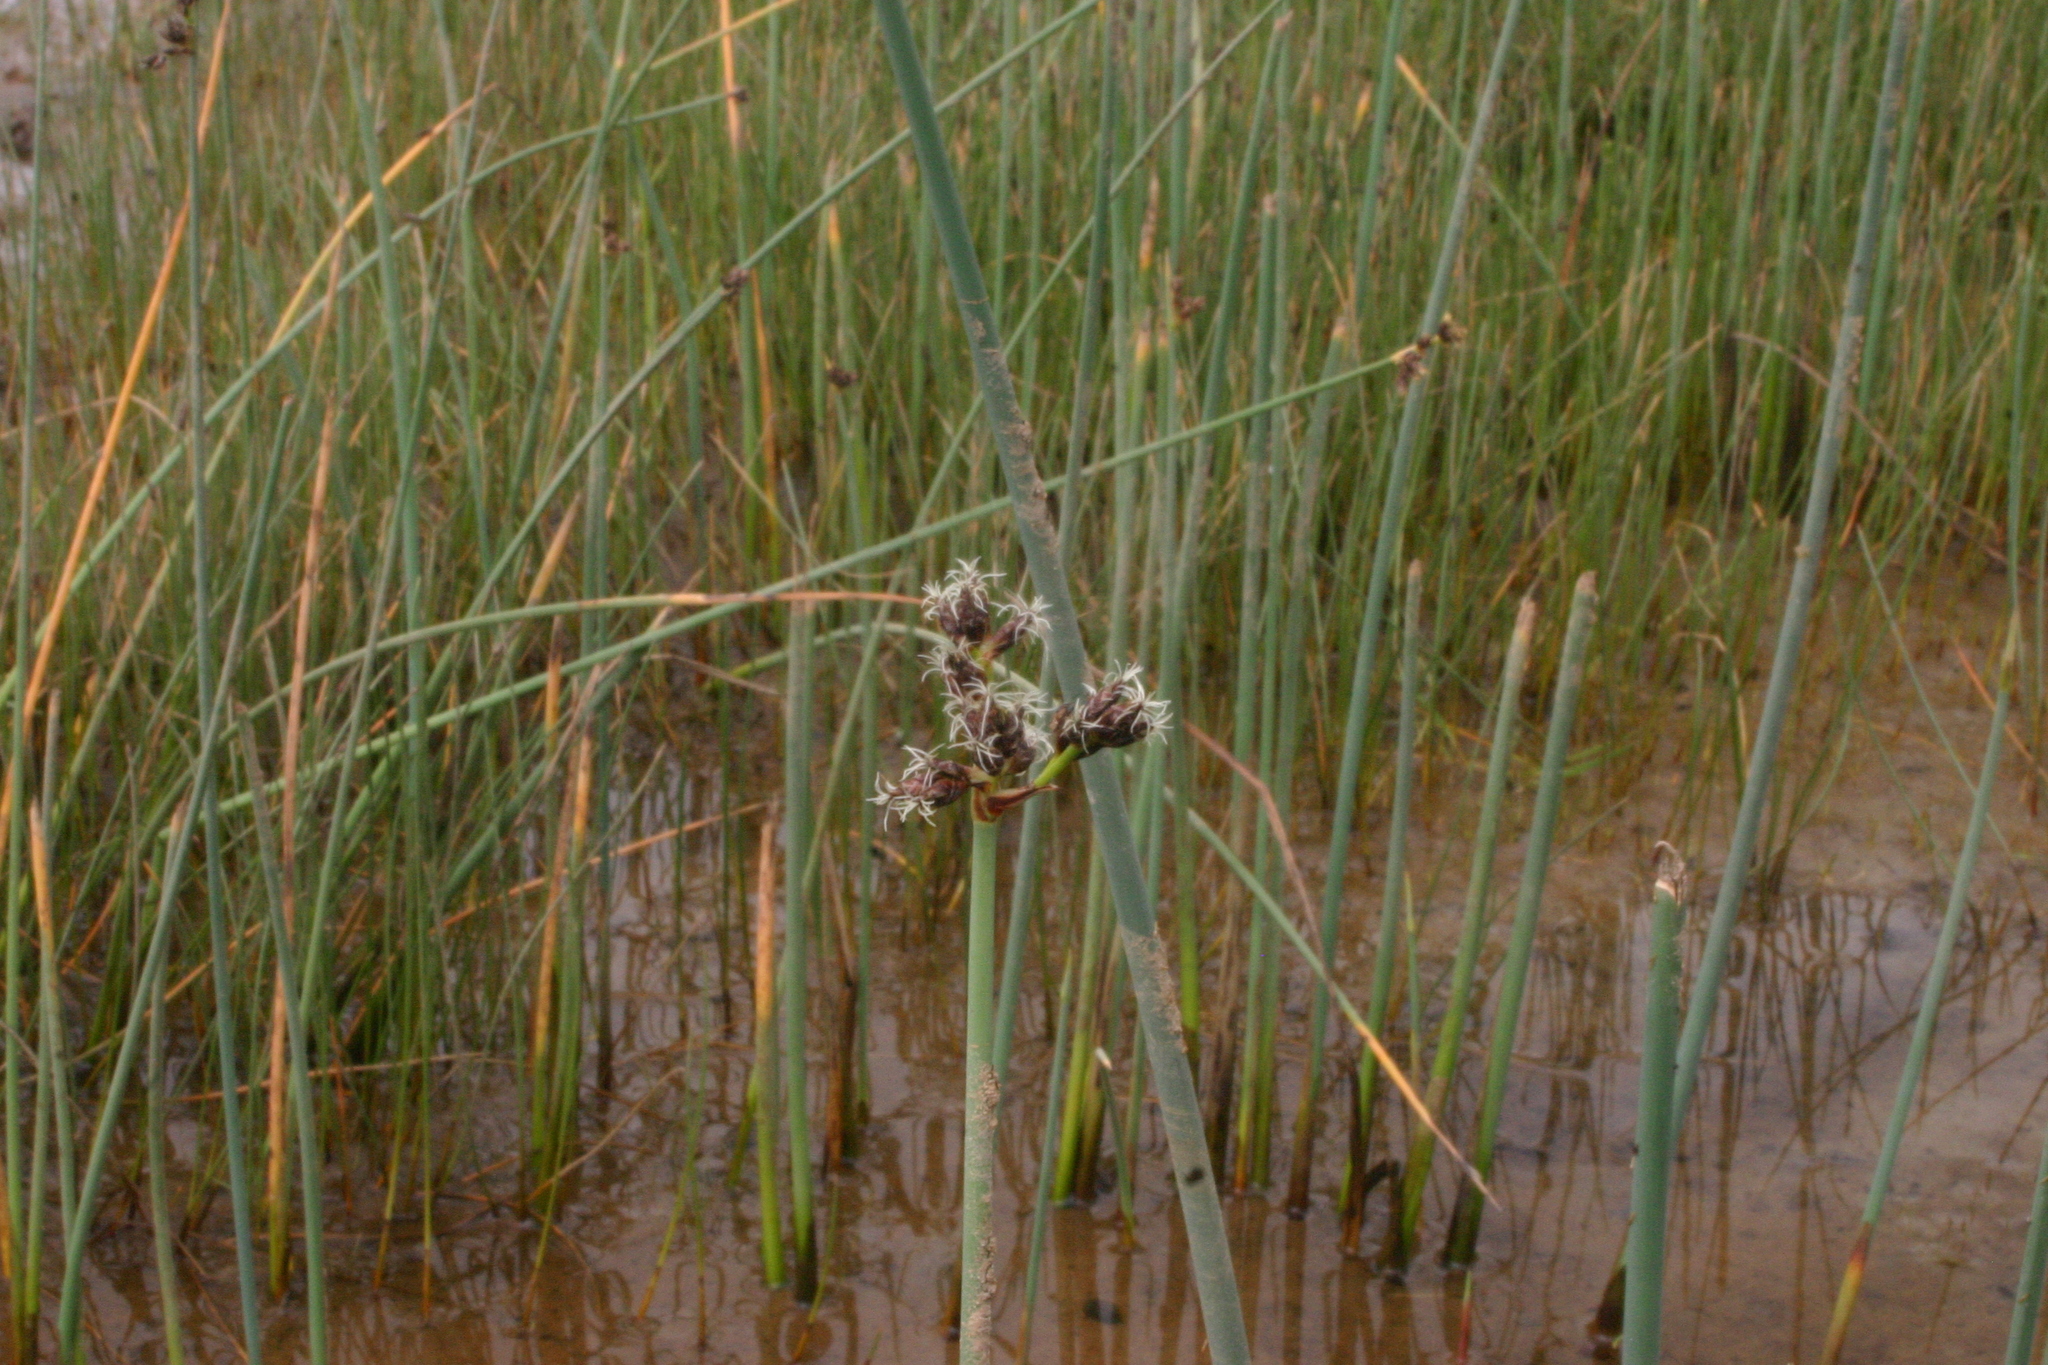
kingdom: Plantae
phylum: Tracheophyta
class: Liliopsida
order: Poales
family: Cyperaceae
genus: Schoenoplectus
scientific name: Schoenoplectus tabernaemontani
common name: Grey club-rush
